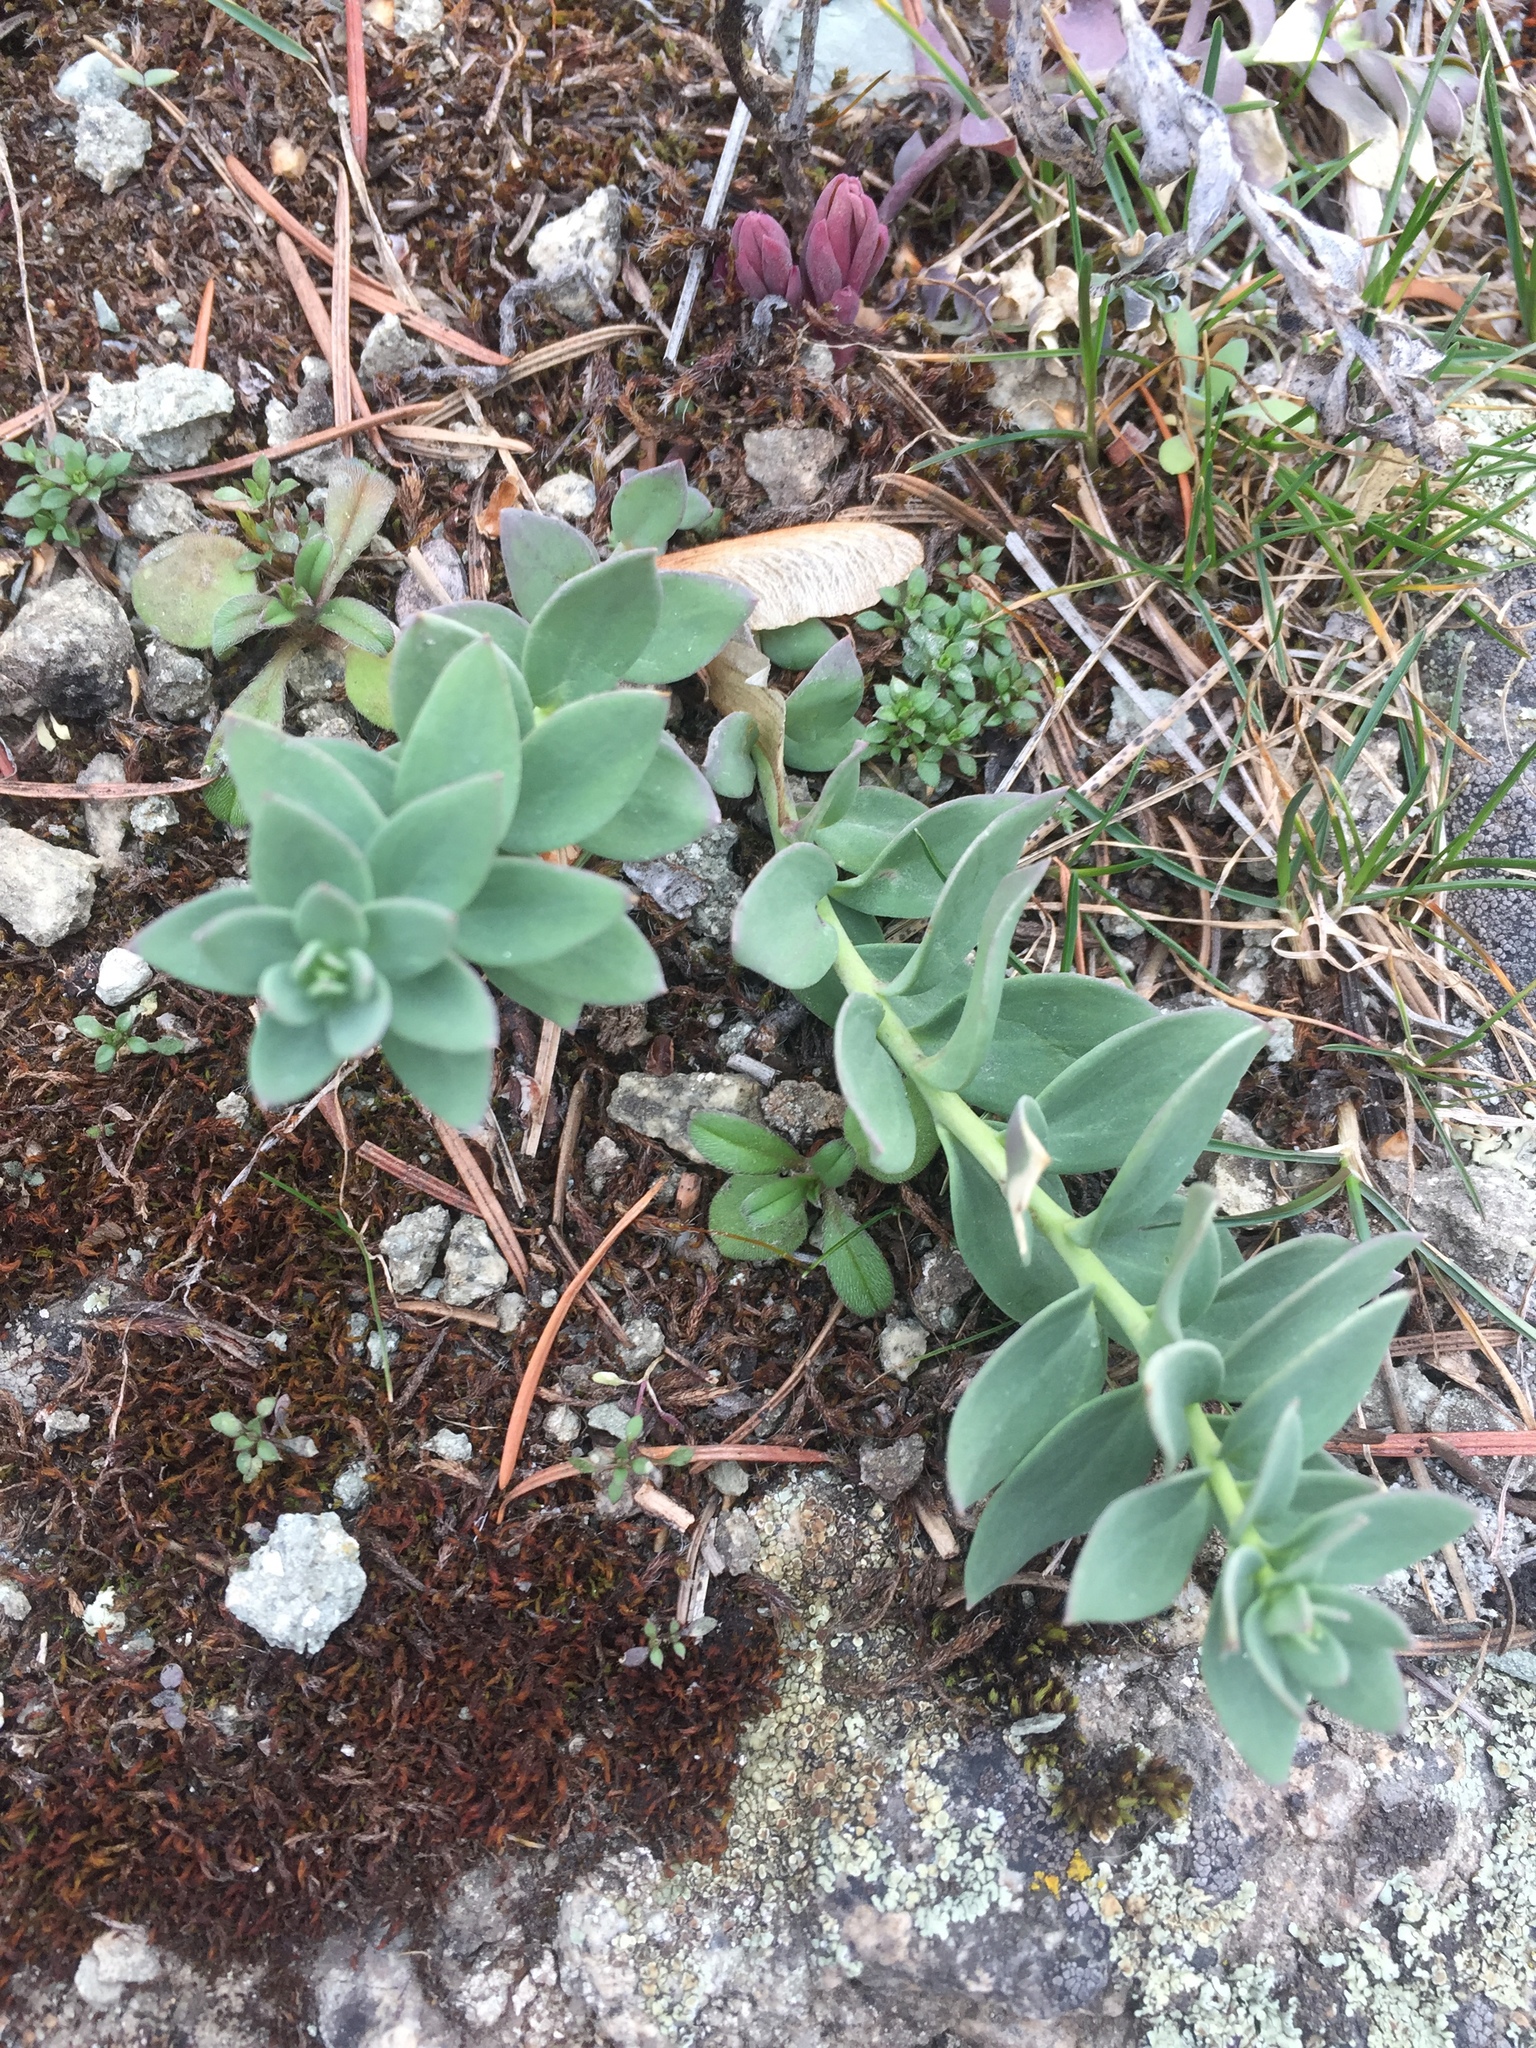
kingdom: Plantae
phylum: Tracheophyta
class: Magnoliopsida
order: Lamiales
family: Plantaginaceae
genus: Linaria
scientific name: Linaria dalmatica
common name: Dalmatian toadflax
